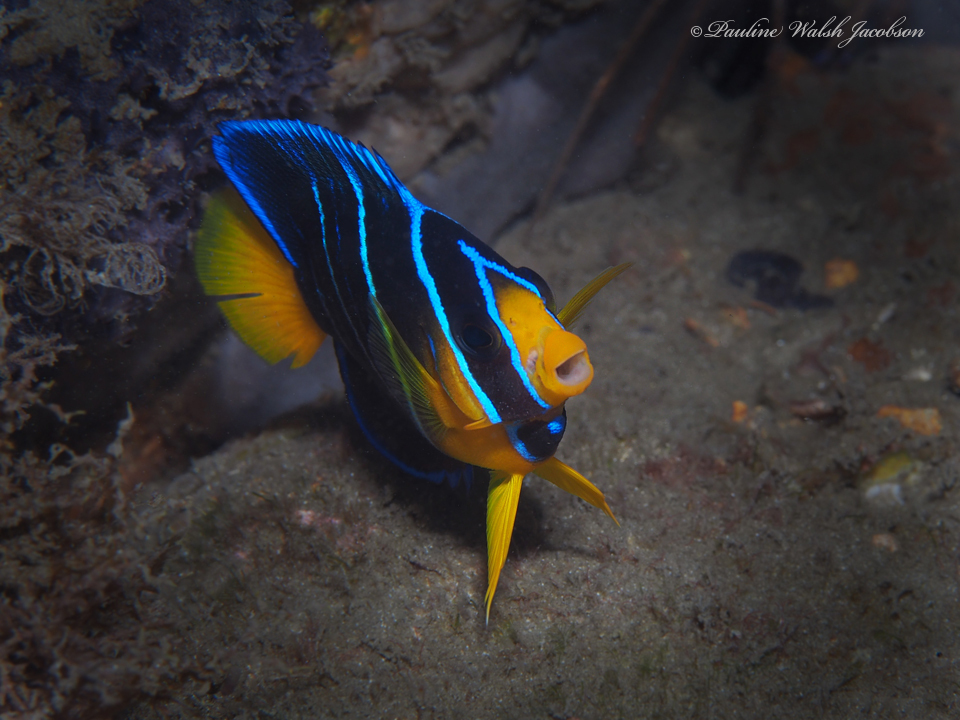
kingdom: Animalia
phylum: Chordata
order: Perciformes
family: Pomacanthidae
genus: Holacanthus
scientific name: Holacanthus bermudensis
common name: Blue angelfish
